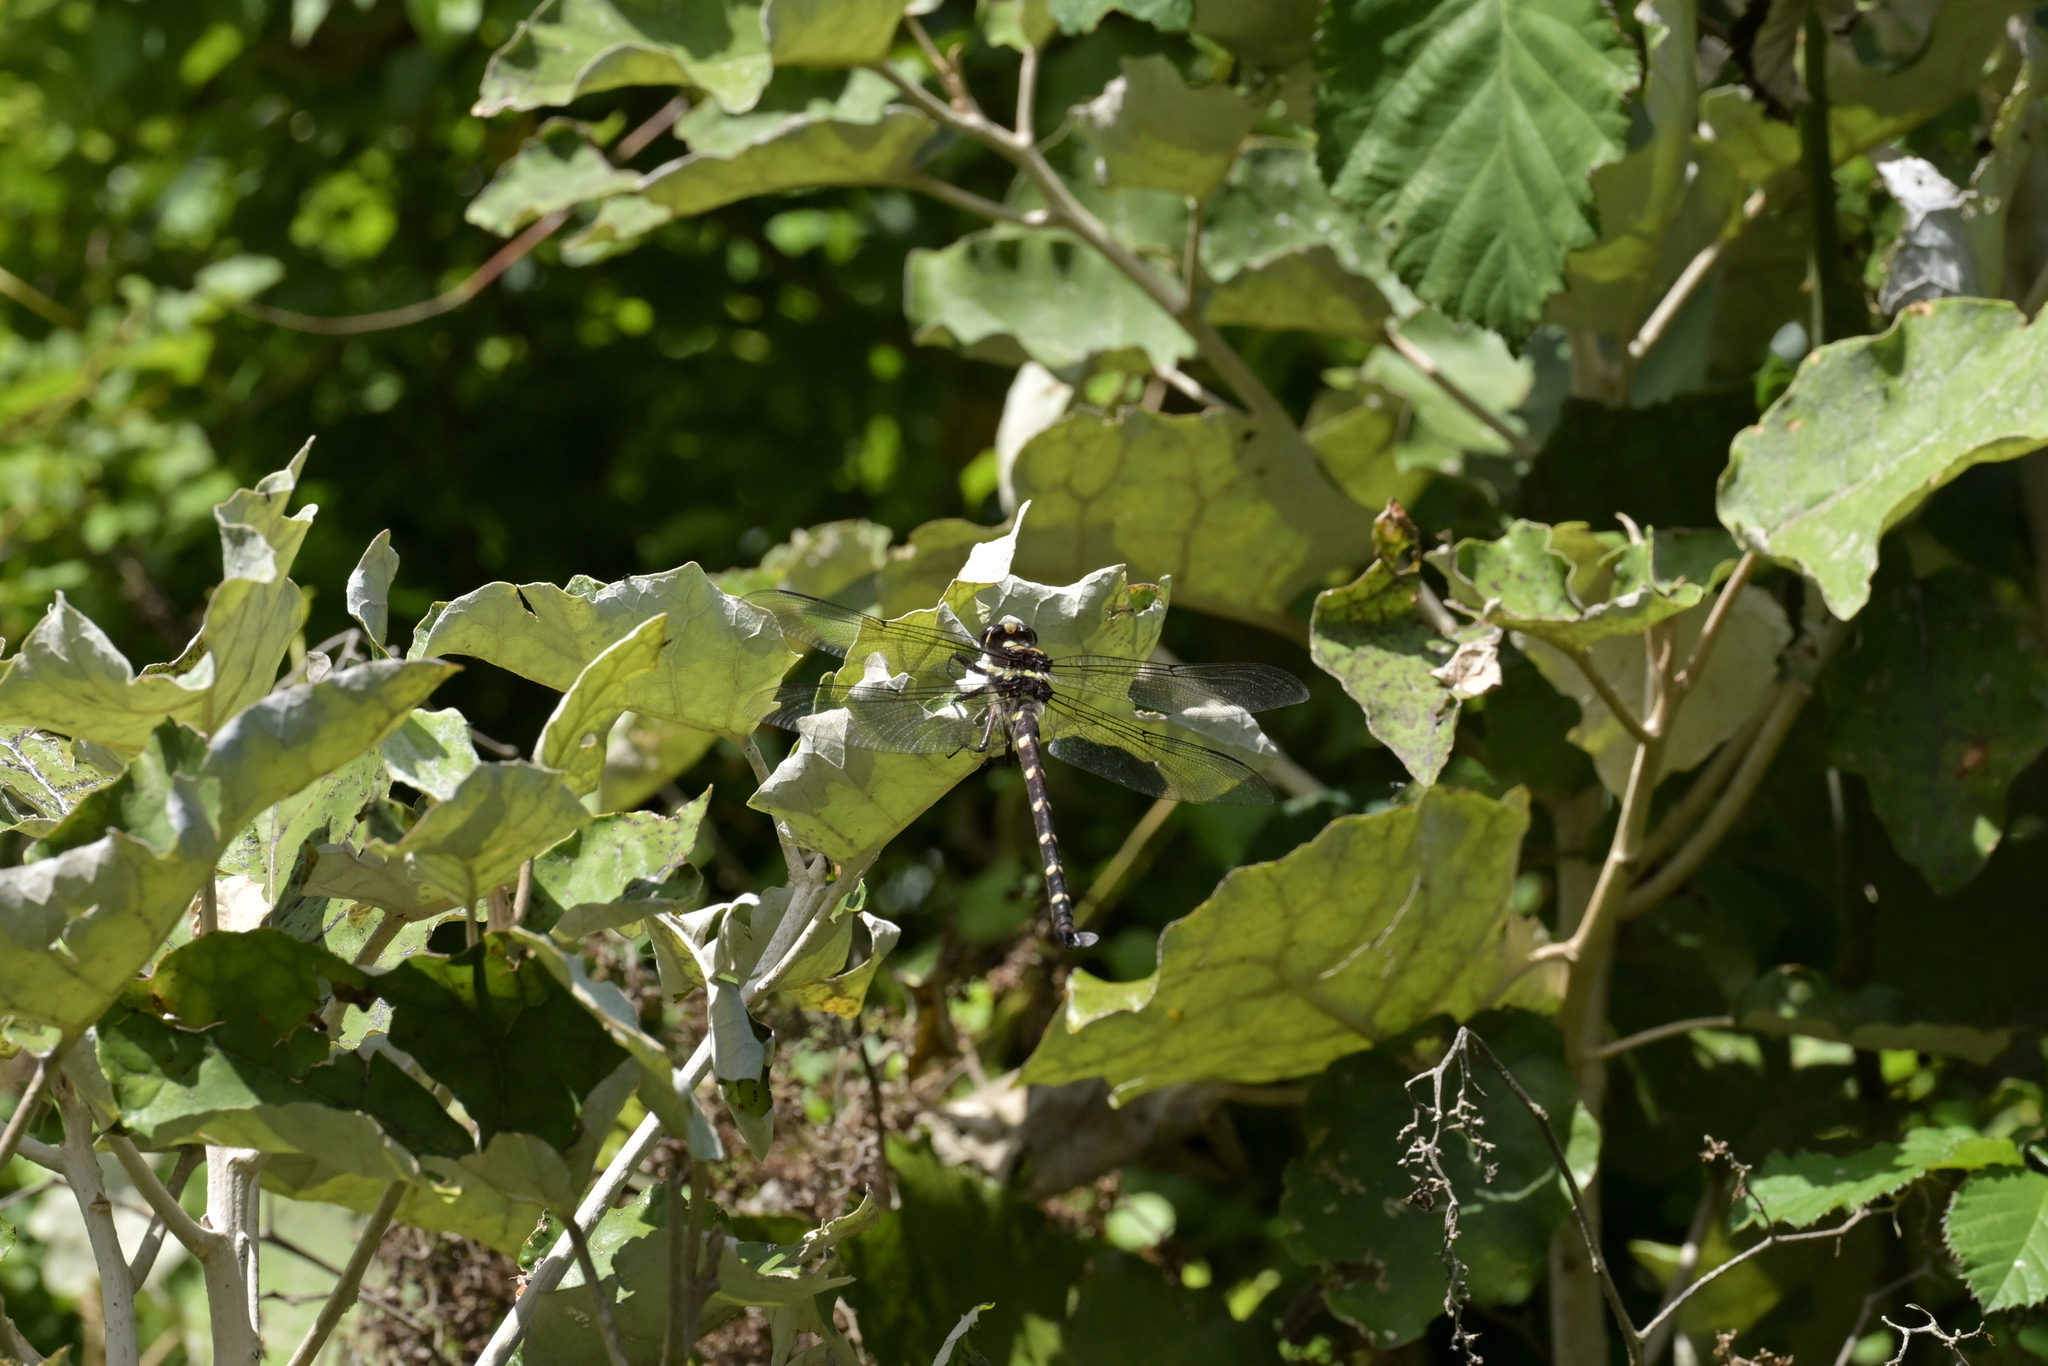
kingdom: Animalia
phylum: Arthropoda
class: Insecta
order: Odonata
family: Petaluridae
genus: Uropetala
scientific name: Uropetala carovei
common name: Bush giant dragonfly
